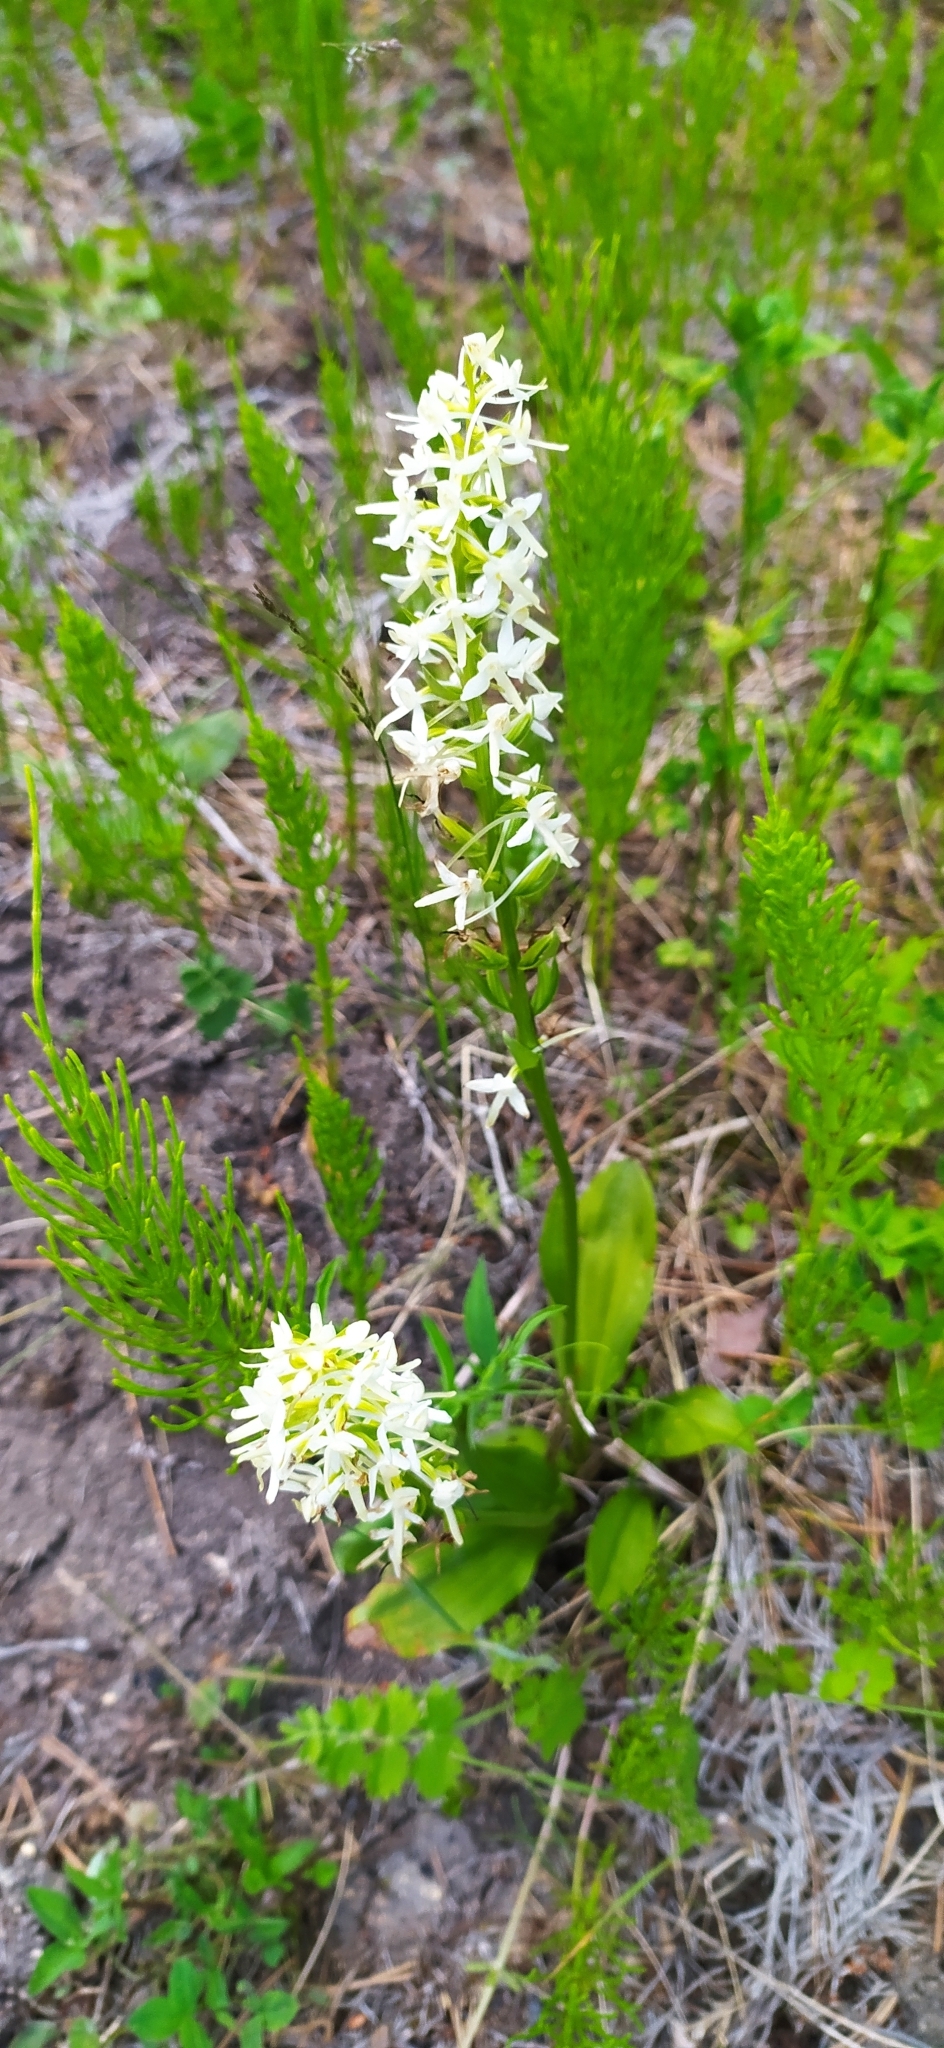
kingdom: Plantae
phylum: Tracheophyta
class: Liliopsida
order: Asparagales
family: Orchidaceae
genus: Platanthera
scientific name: Platanthera bifolia
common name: Lesser butterfly-orchid
